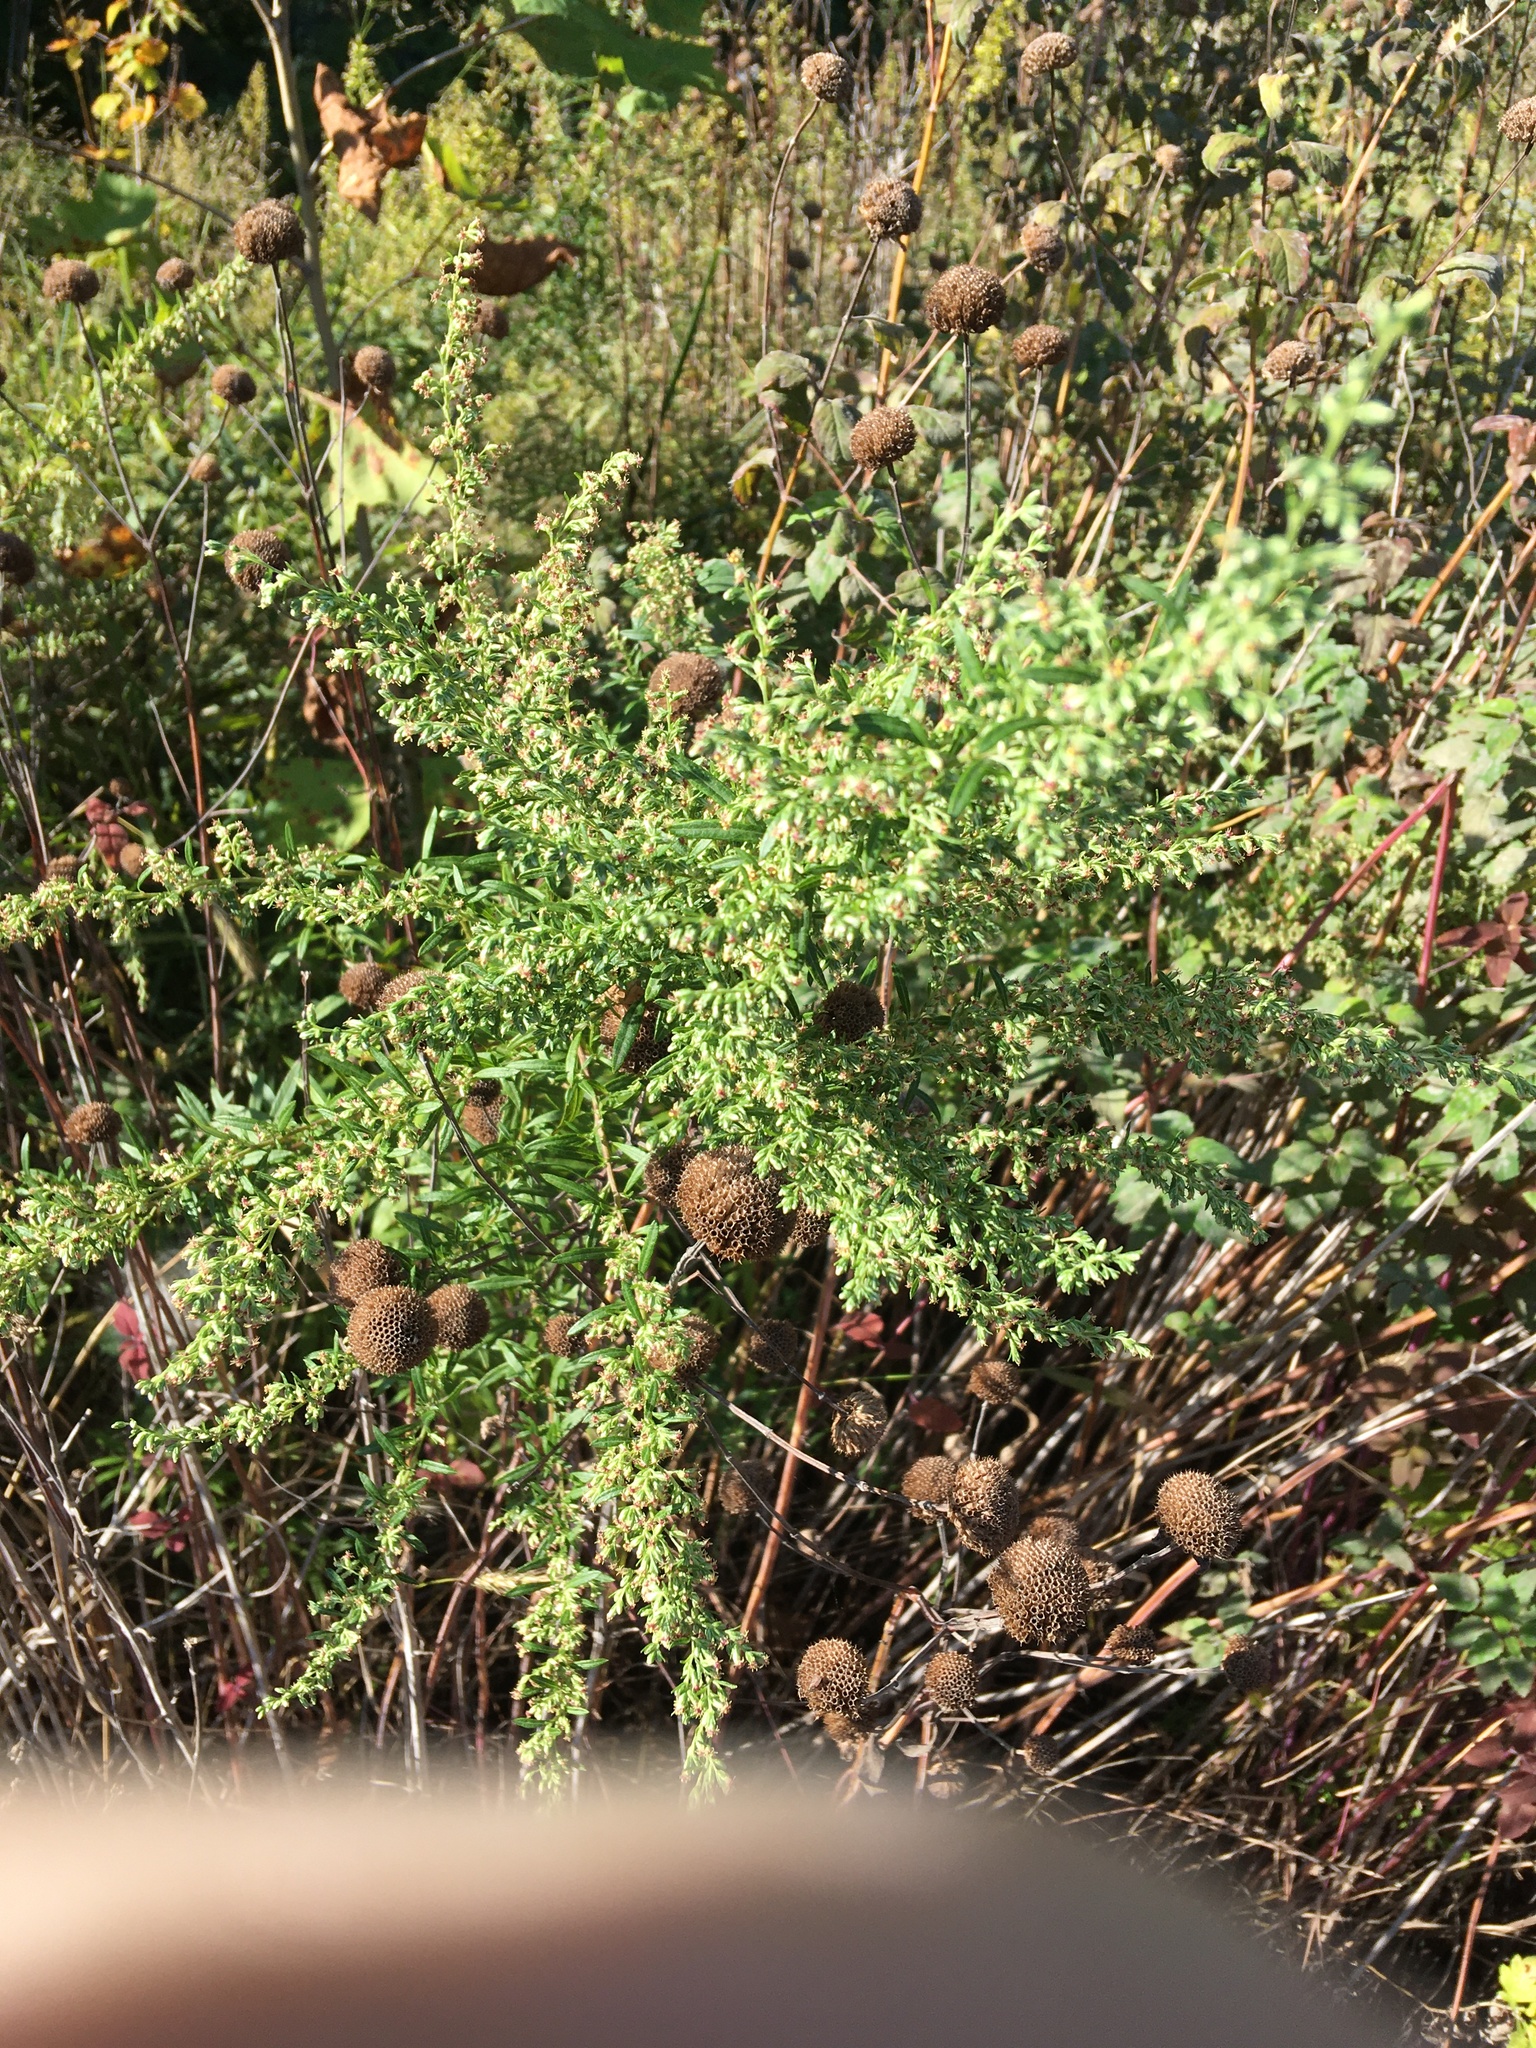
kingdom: Plantae
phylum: Tracheophyta
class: Magnoliopsida
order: Asterales
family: Asteraceae
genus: Artemisia
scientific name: Artemisia vulgaris
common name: Mugwort
